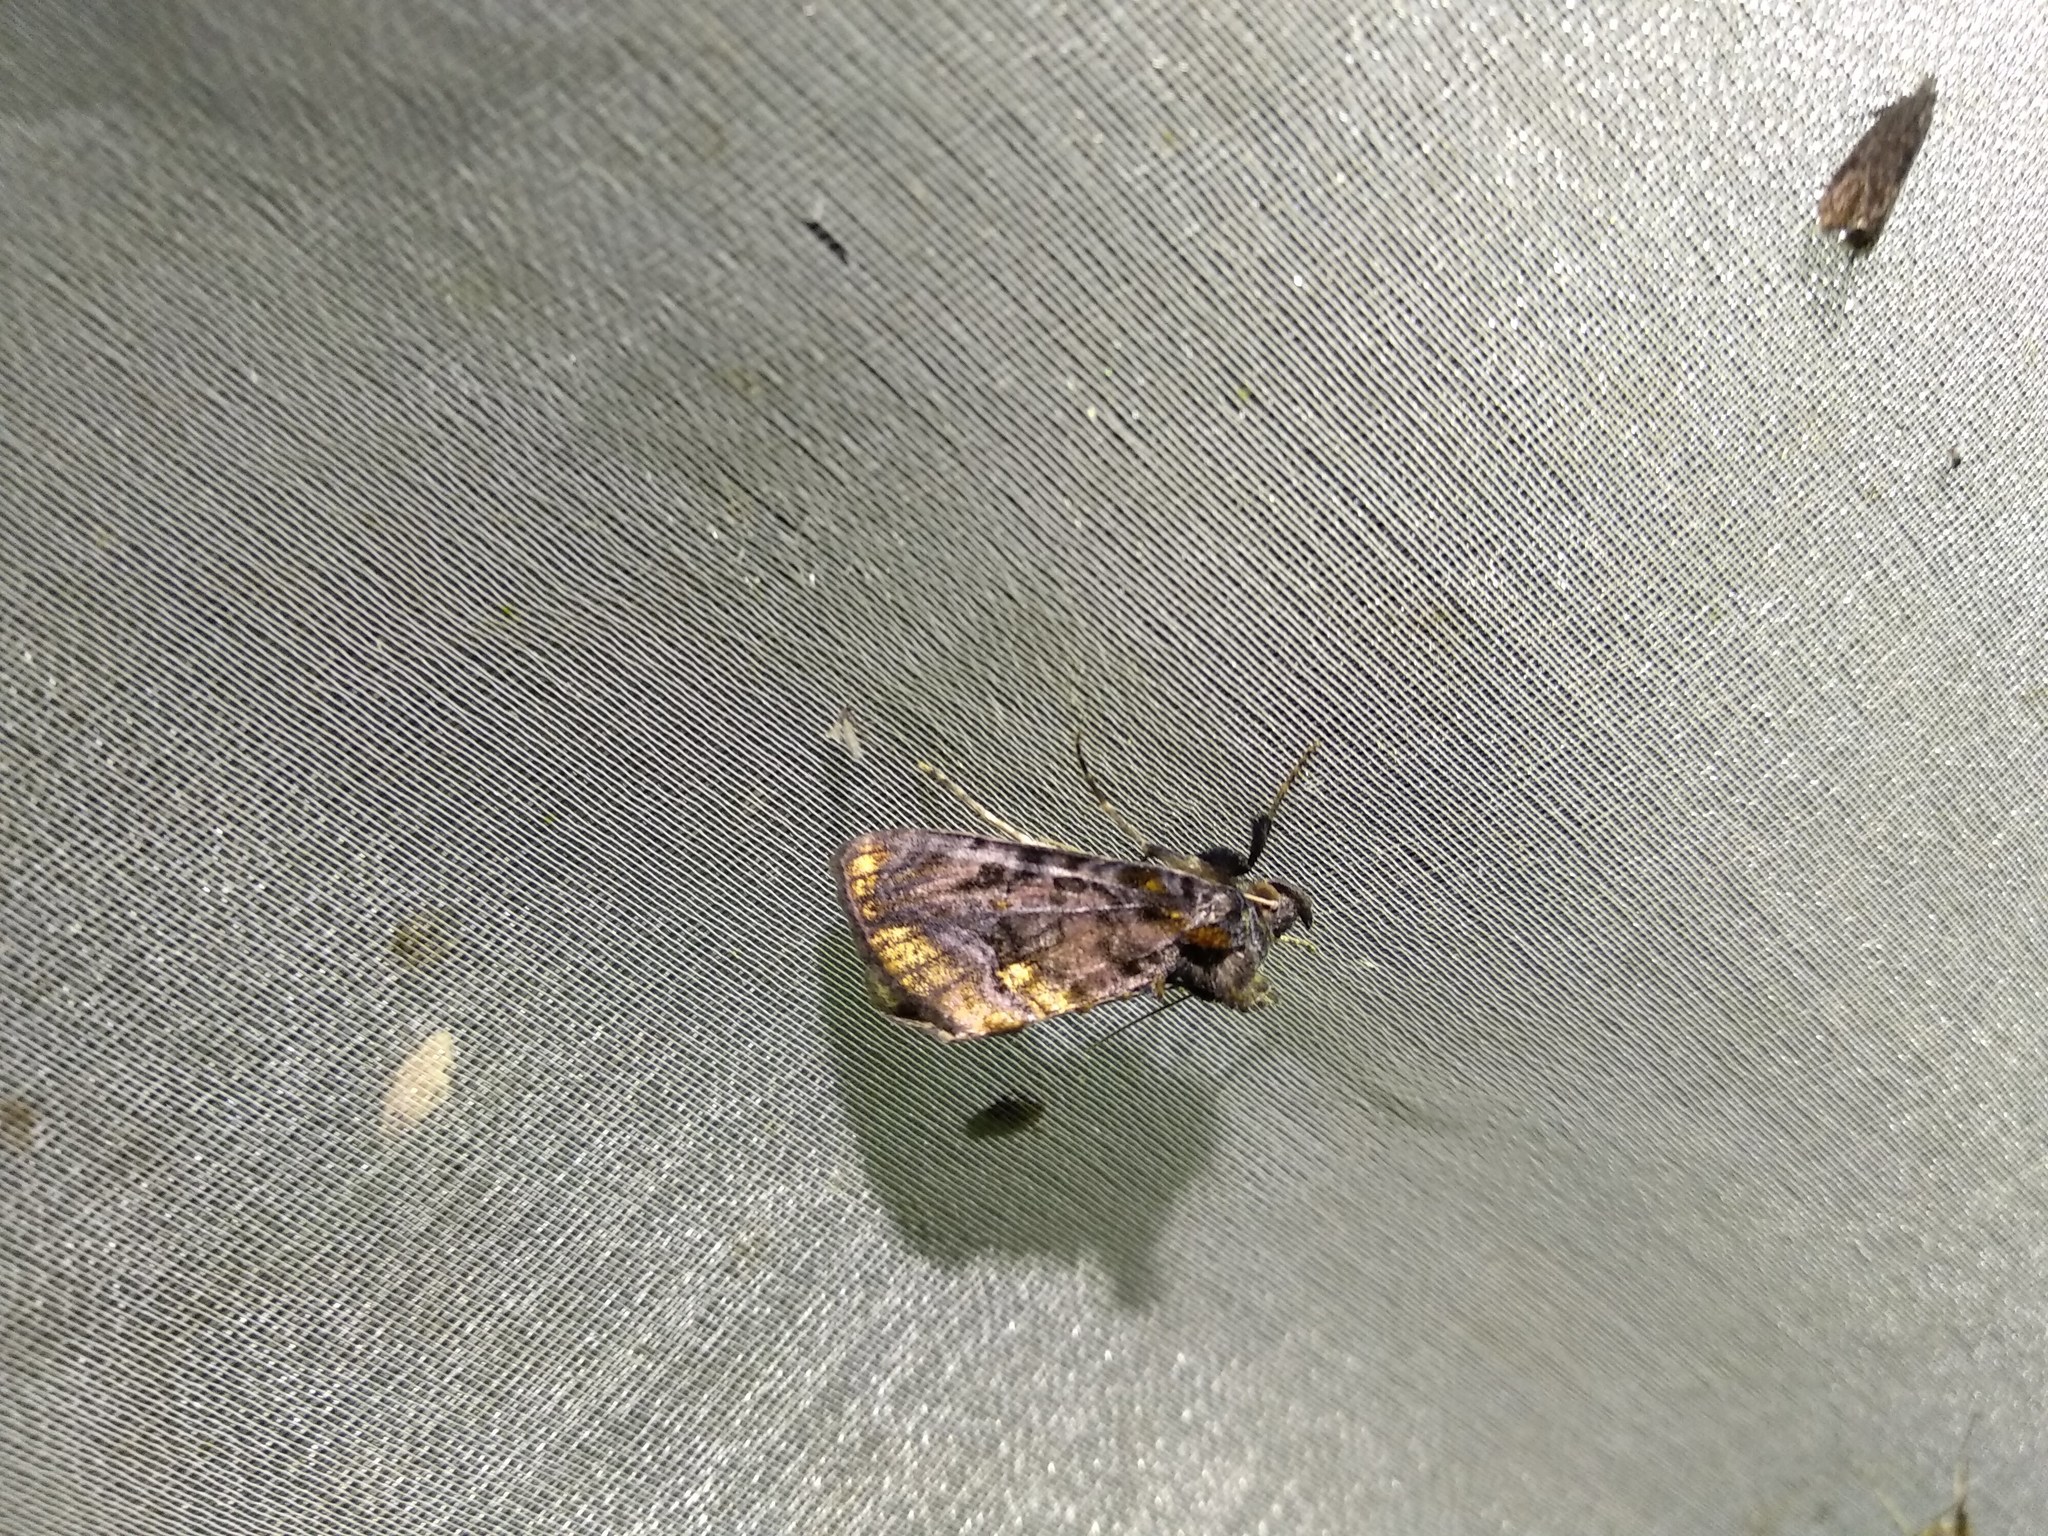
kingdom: Animalia
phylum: Arthropoda
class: Insecta
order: Lepidoptera
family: Noctuidae
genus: Lamprotes
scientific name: Lamprotes caureum
